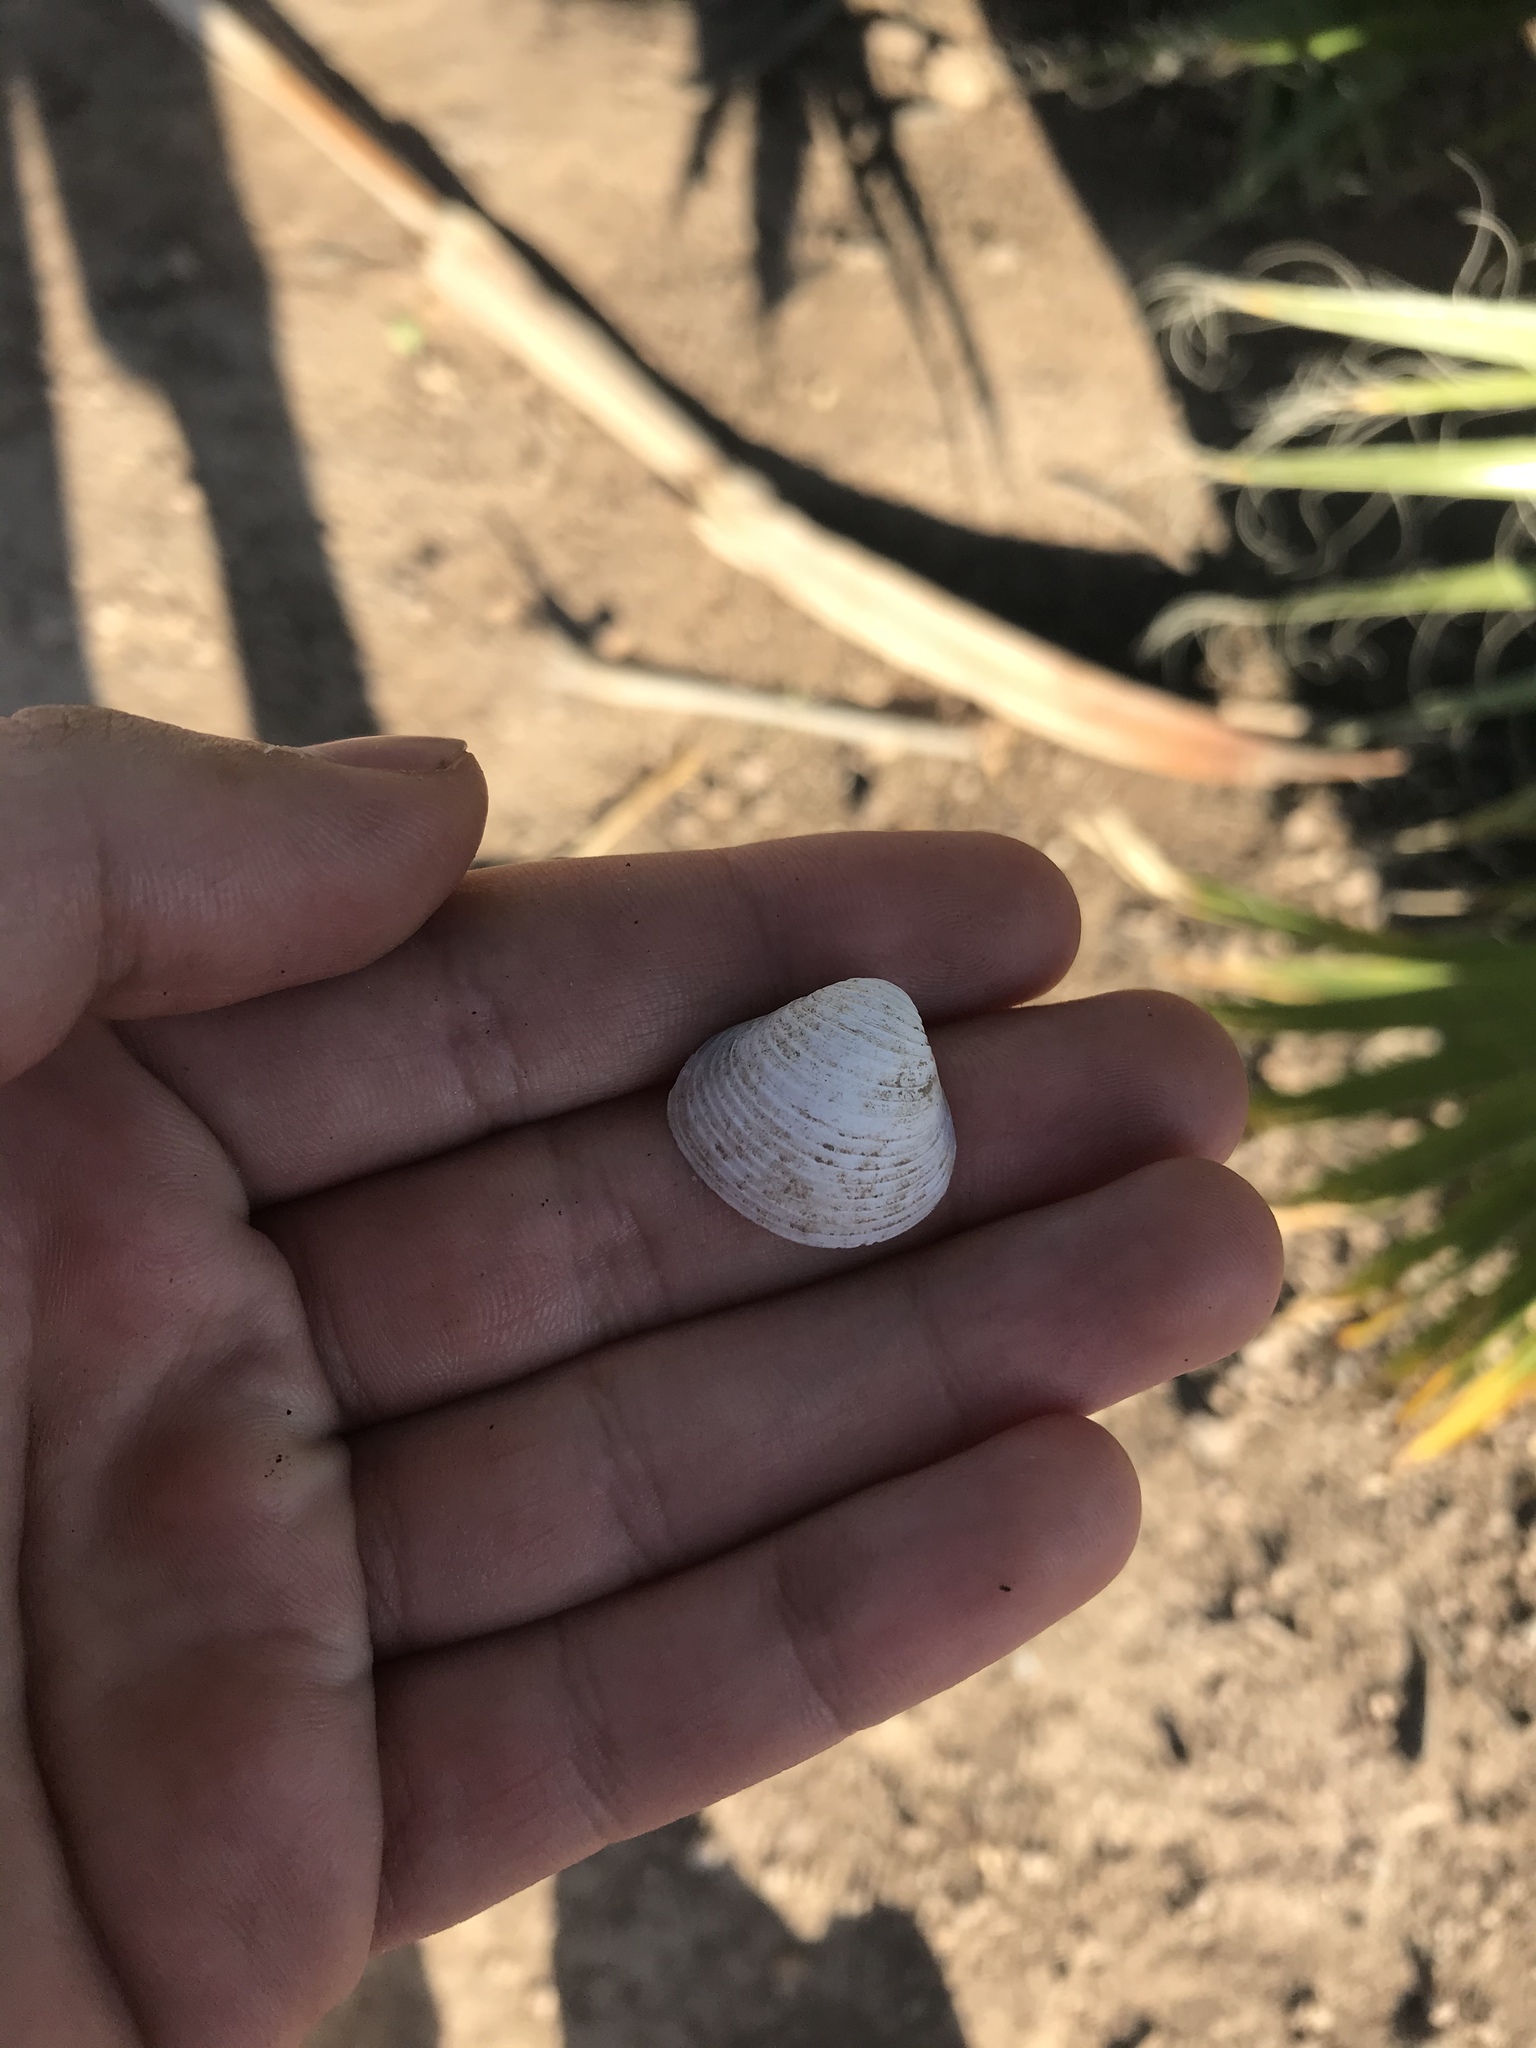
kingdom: Animalia
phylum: Mollusca
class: Bivalvia
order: Venerida
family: Cyrenidae
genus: Corbicula
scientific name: Corbicula fluminea
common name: Asian clam
